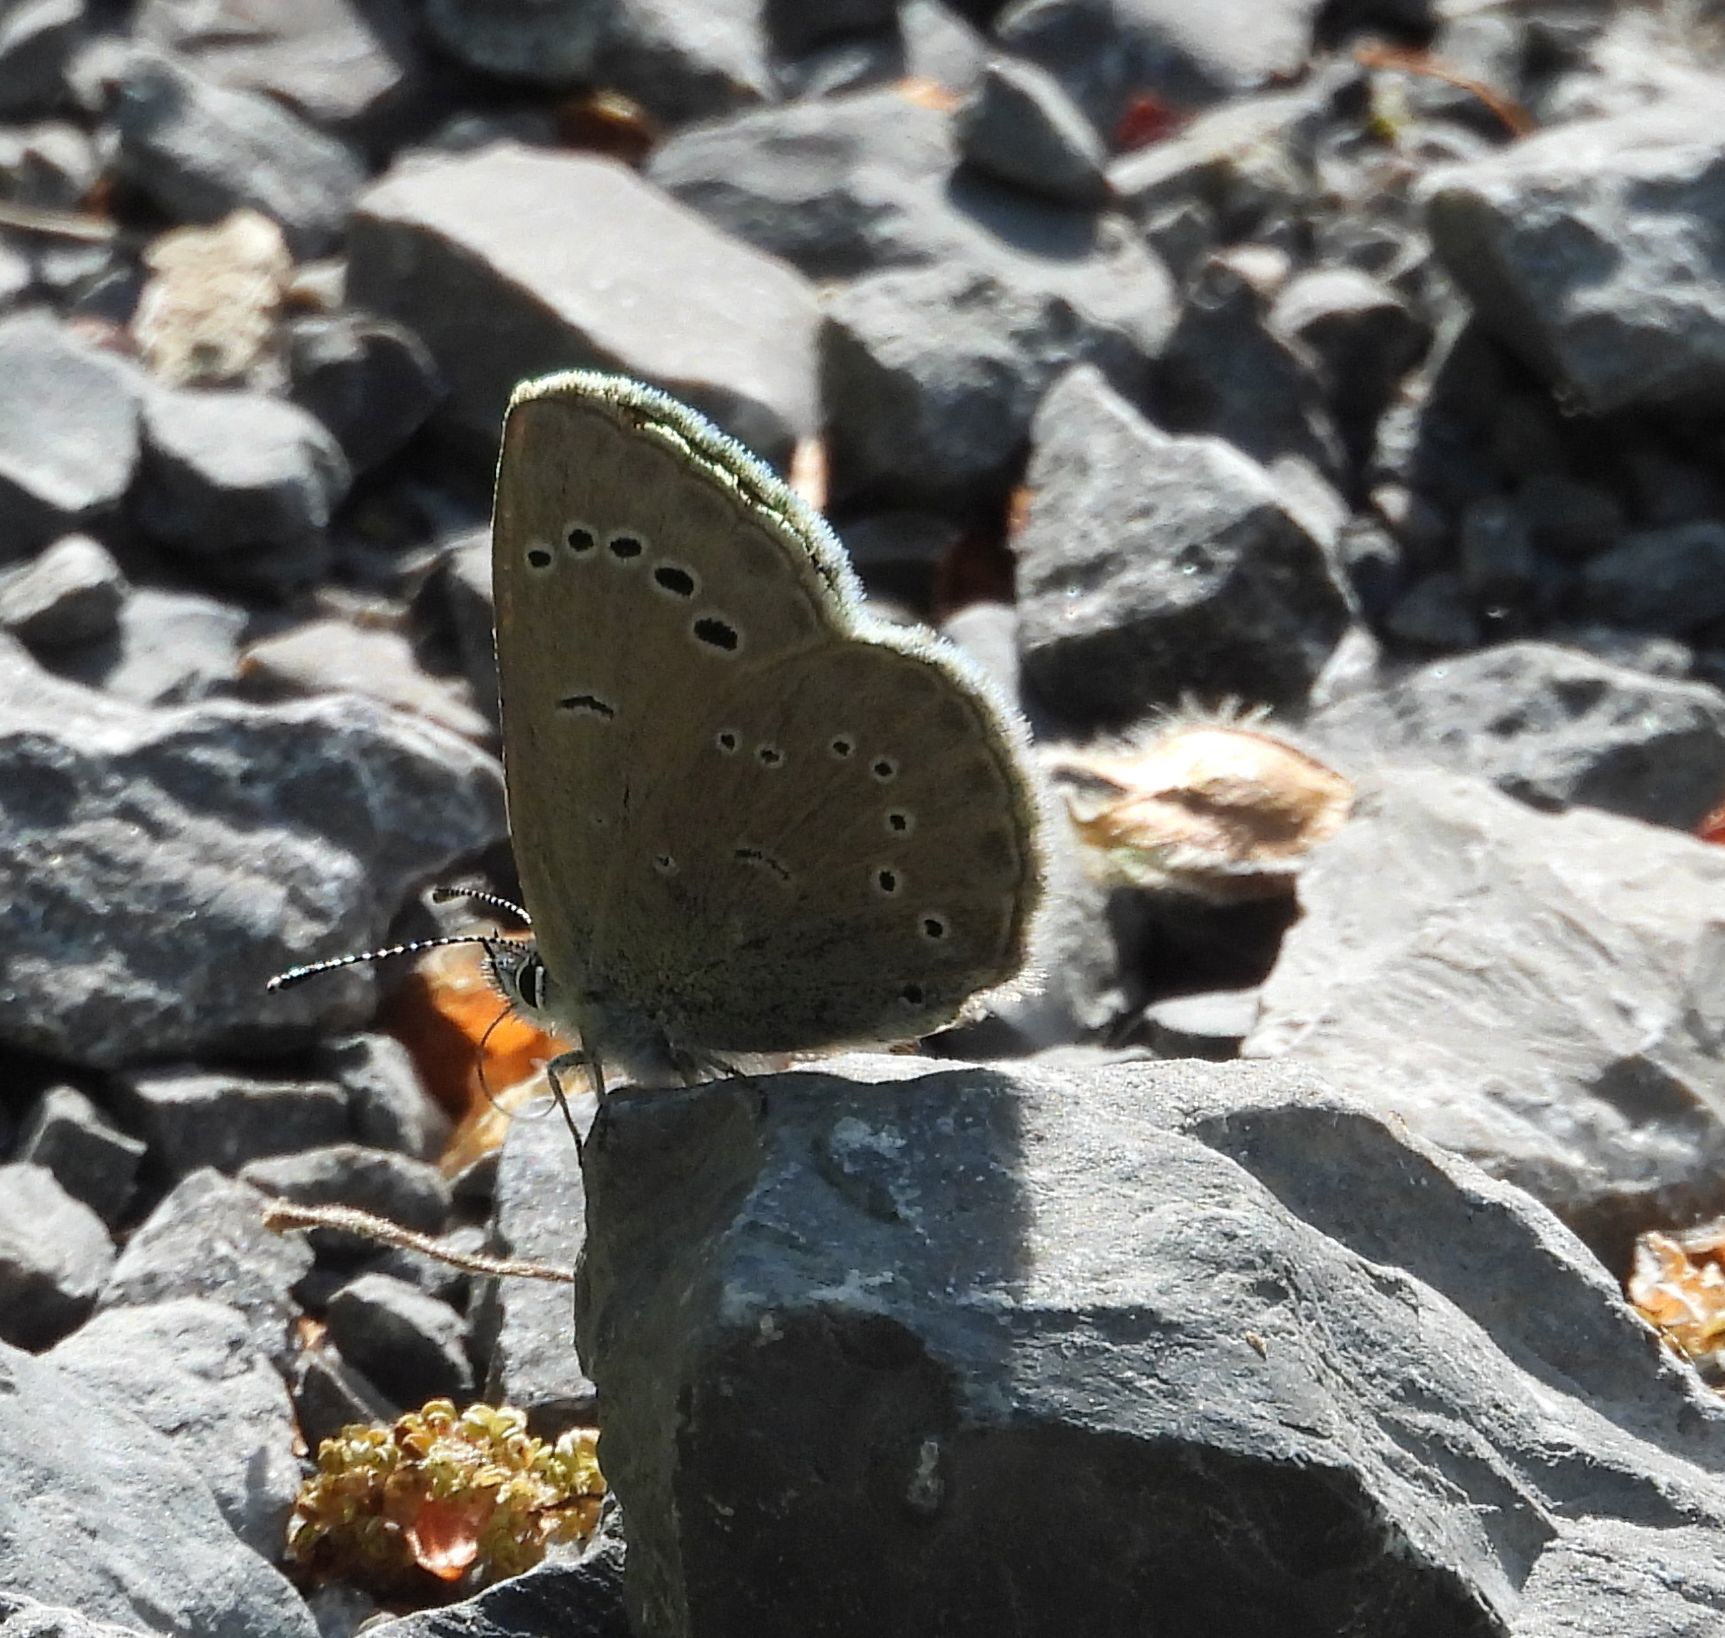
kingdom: Animalia
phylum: Arthropoda
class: Insecta
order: Lepidoptera
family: Lycaenidae
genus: Glaucopsyche
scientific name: Glaucopsyche lygdamus
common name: Silvery blue
